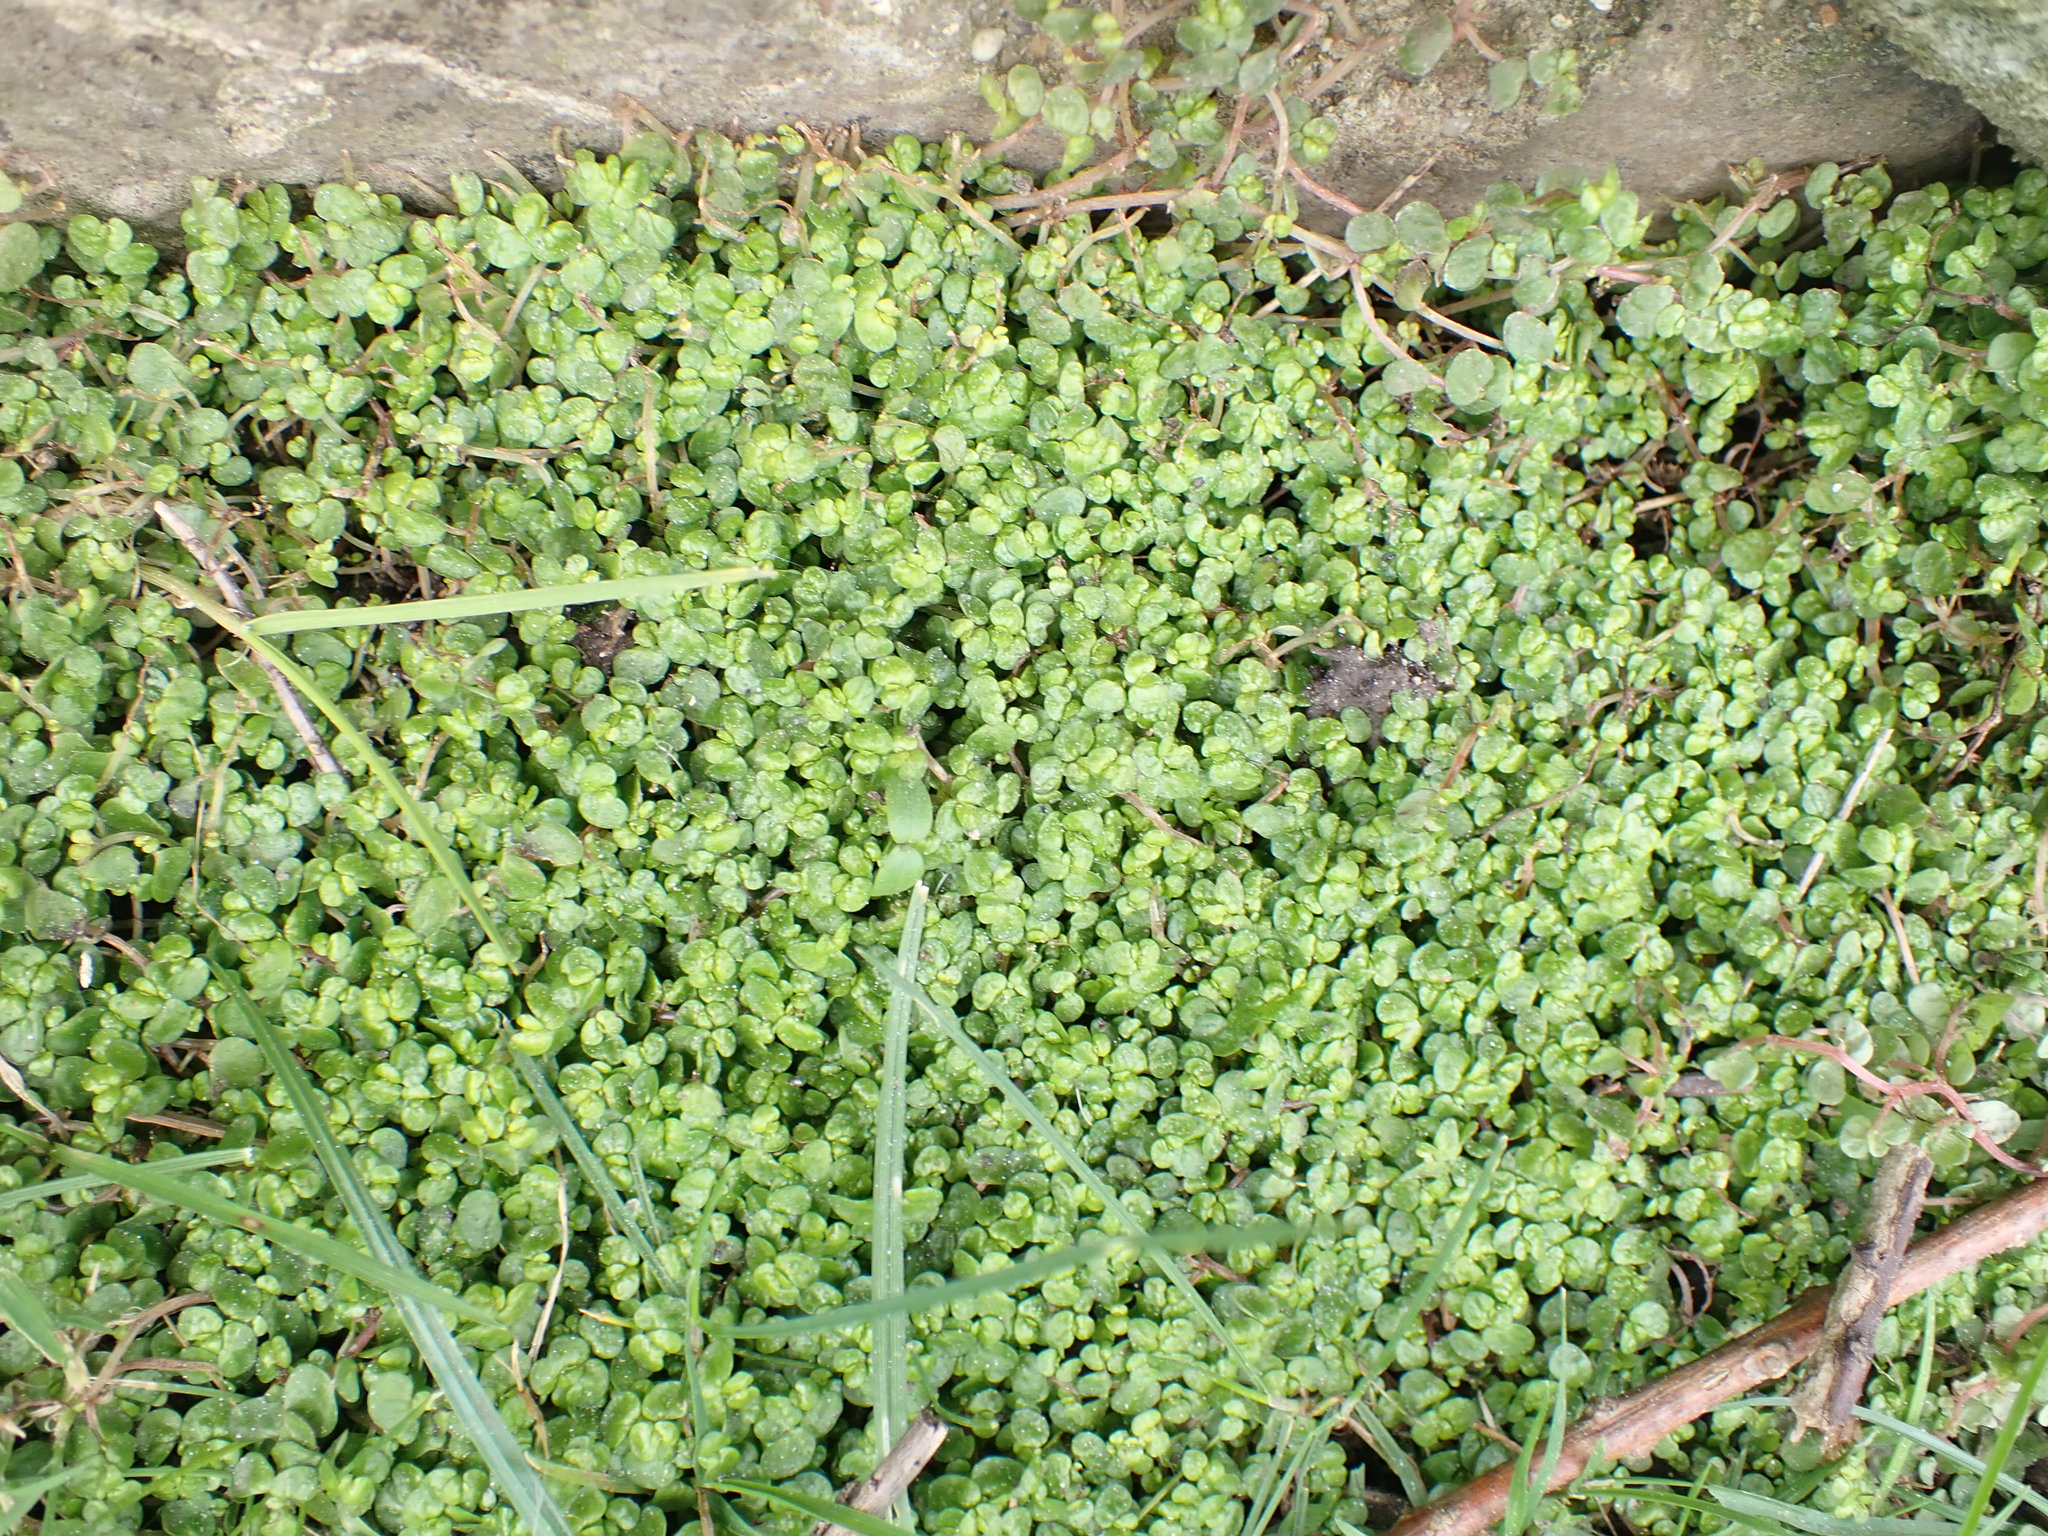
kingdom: Plantae
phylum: Tracheophyta
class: Magnoliopsida
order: Rosales
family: Urticaceae
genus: Soleirolia
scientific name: Soleirolia soleirolii
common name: Mind-your-own-business
